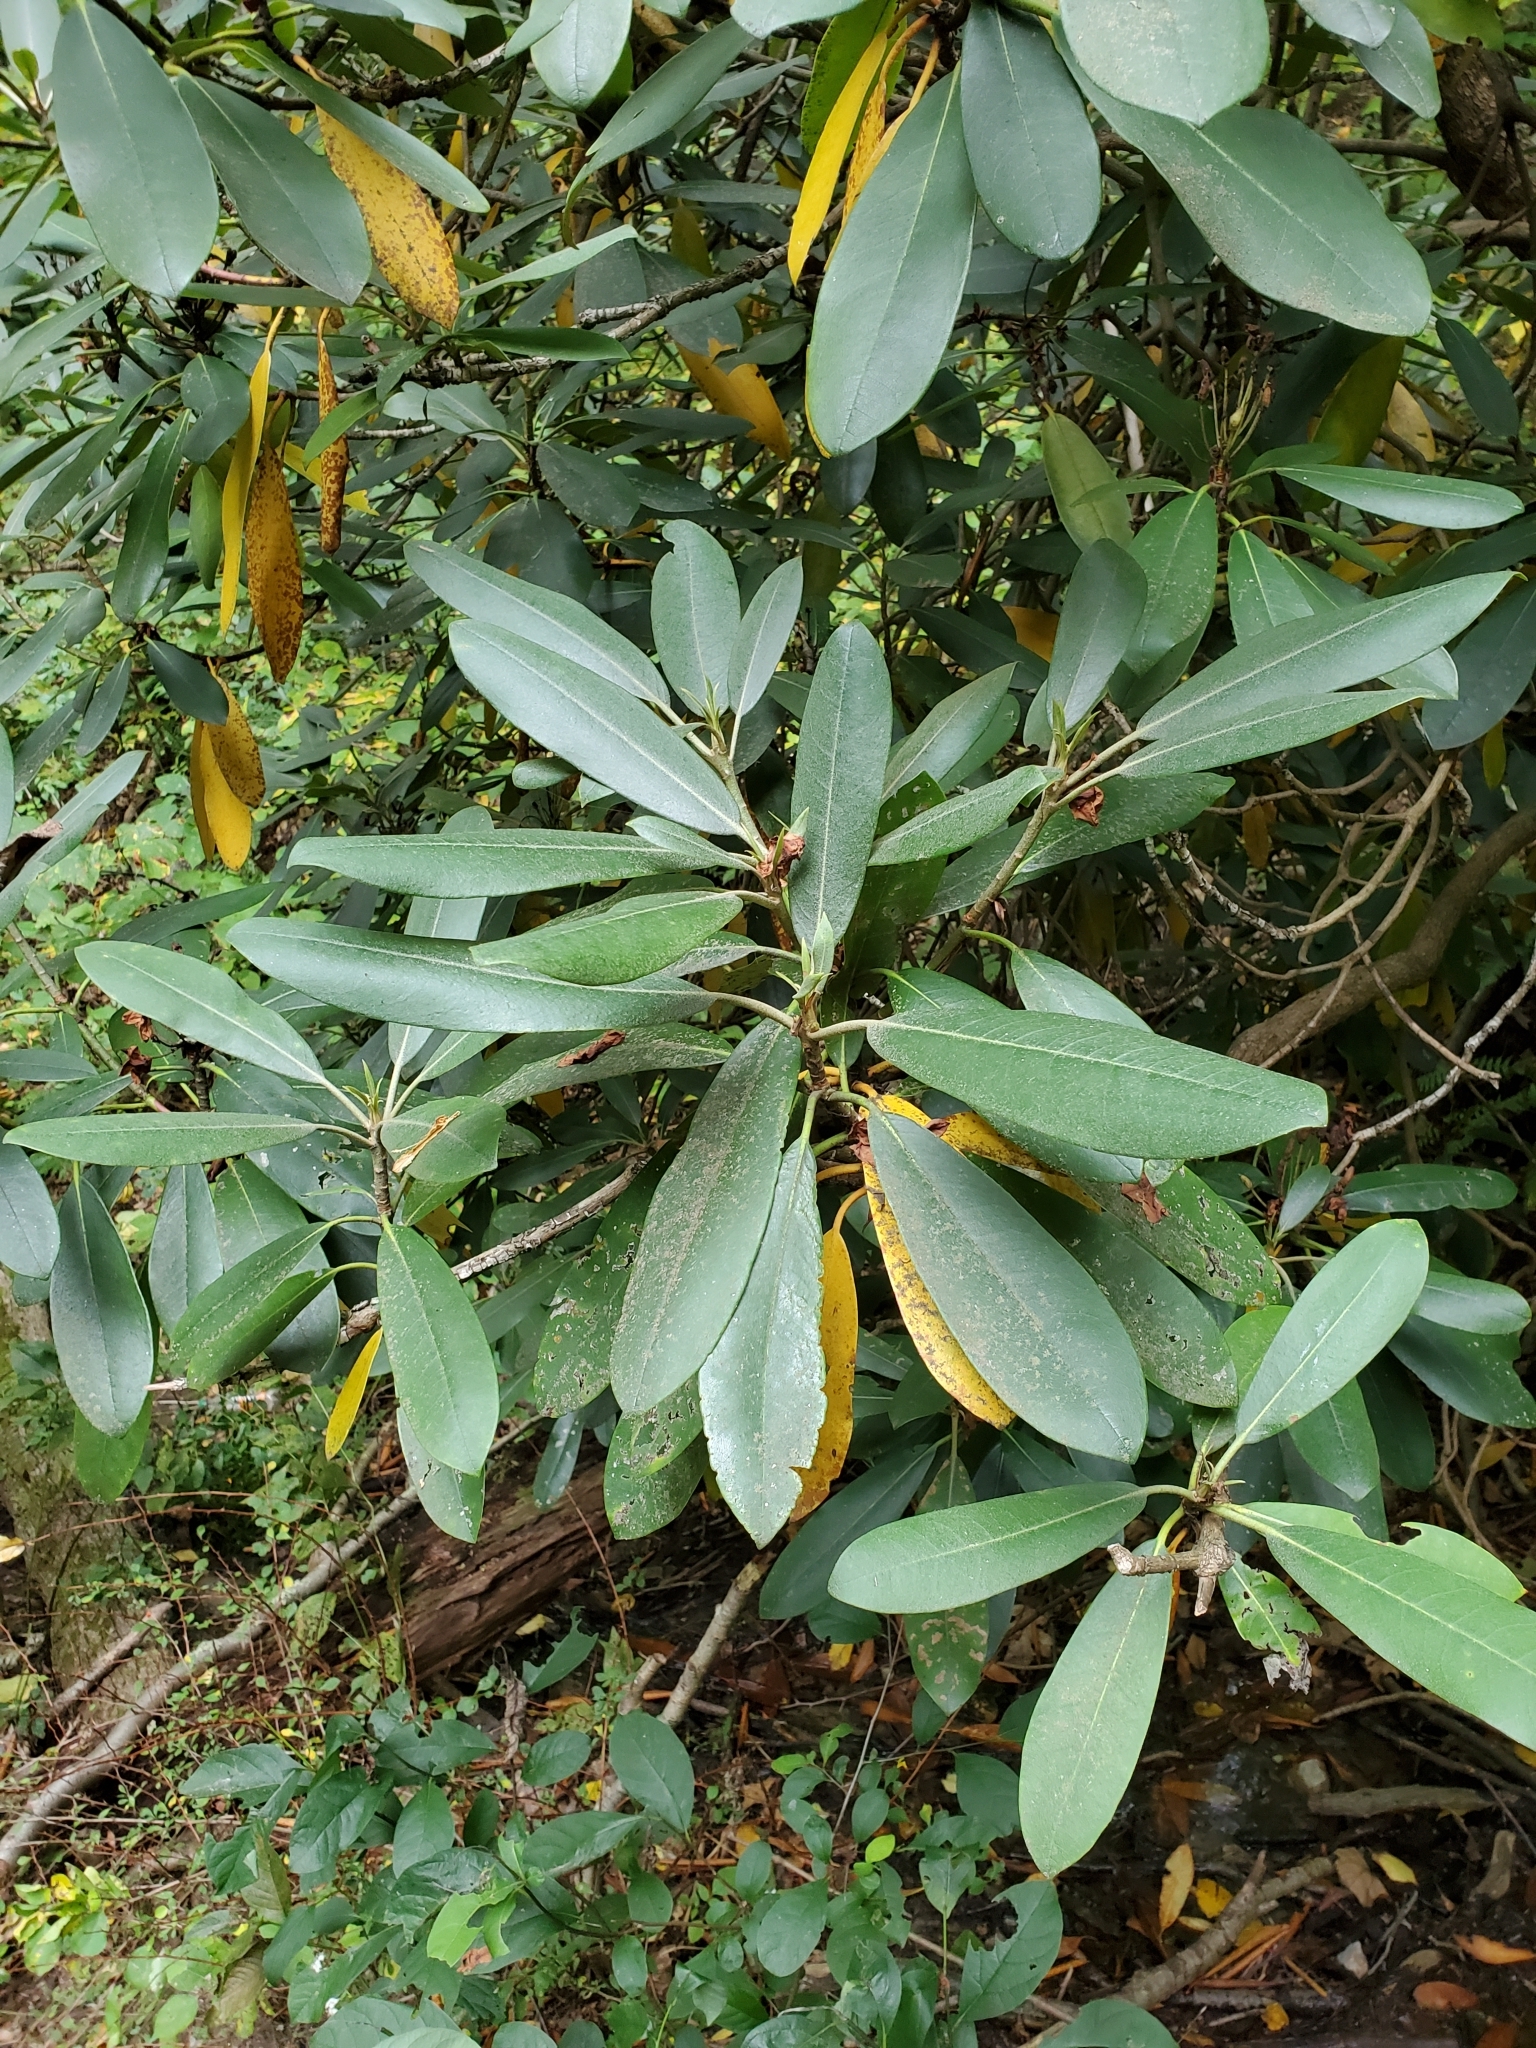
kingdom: Plantae
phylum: Tracheophyta
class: Magnoliopsida
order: Ericales
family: Ericaceae
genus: Rhododendron
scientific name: Rhododendron maximum
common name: Great rhododendron
